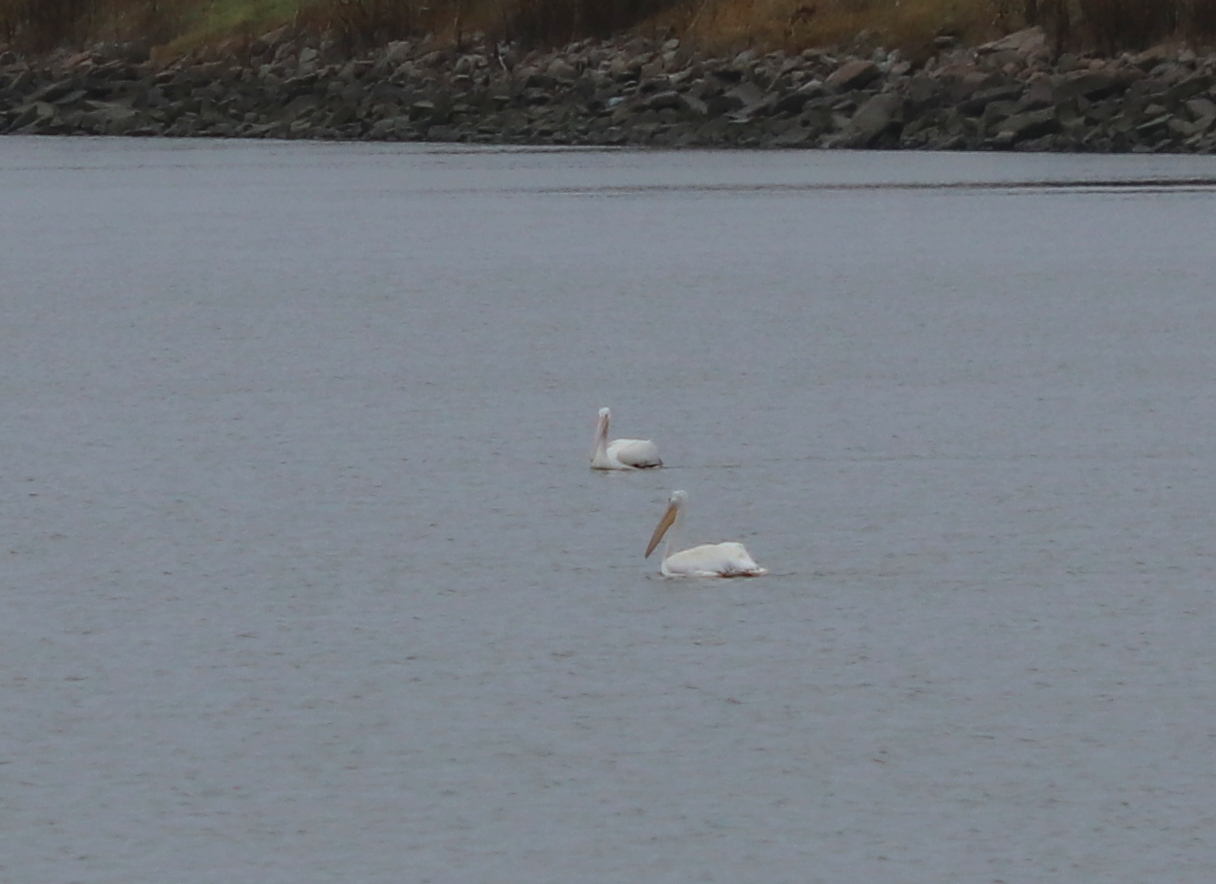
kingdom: Animalia
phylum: Chordata
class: Aves
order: Pelecaniformes
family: Pelecanidae
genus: Pelecanus
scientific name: Pelecanus erythrorhynchos
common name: American white pelican
